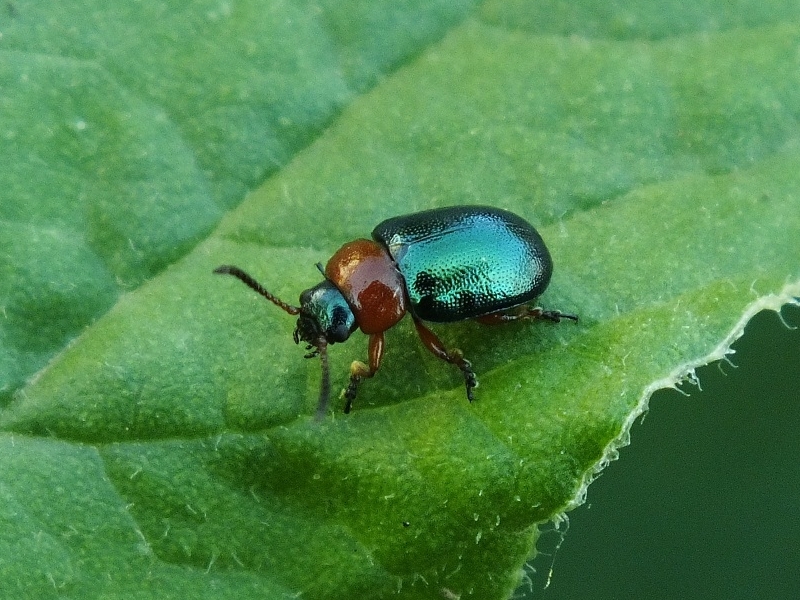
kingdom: Animalia
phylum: Arthropoda
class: Insecta
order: Coleoptera
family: Chrysomelidae
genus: Gastrophysa
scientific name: Gastrophysa polygoni
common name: Knotweed leaf beetle
